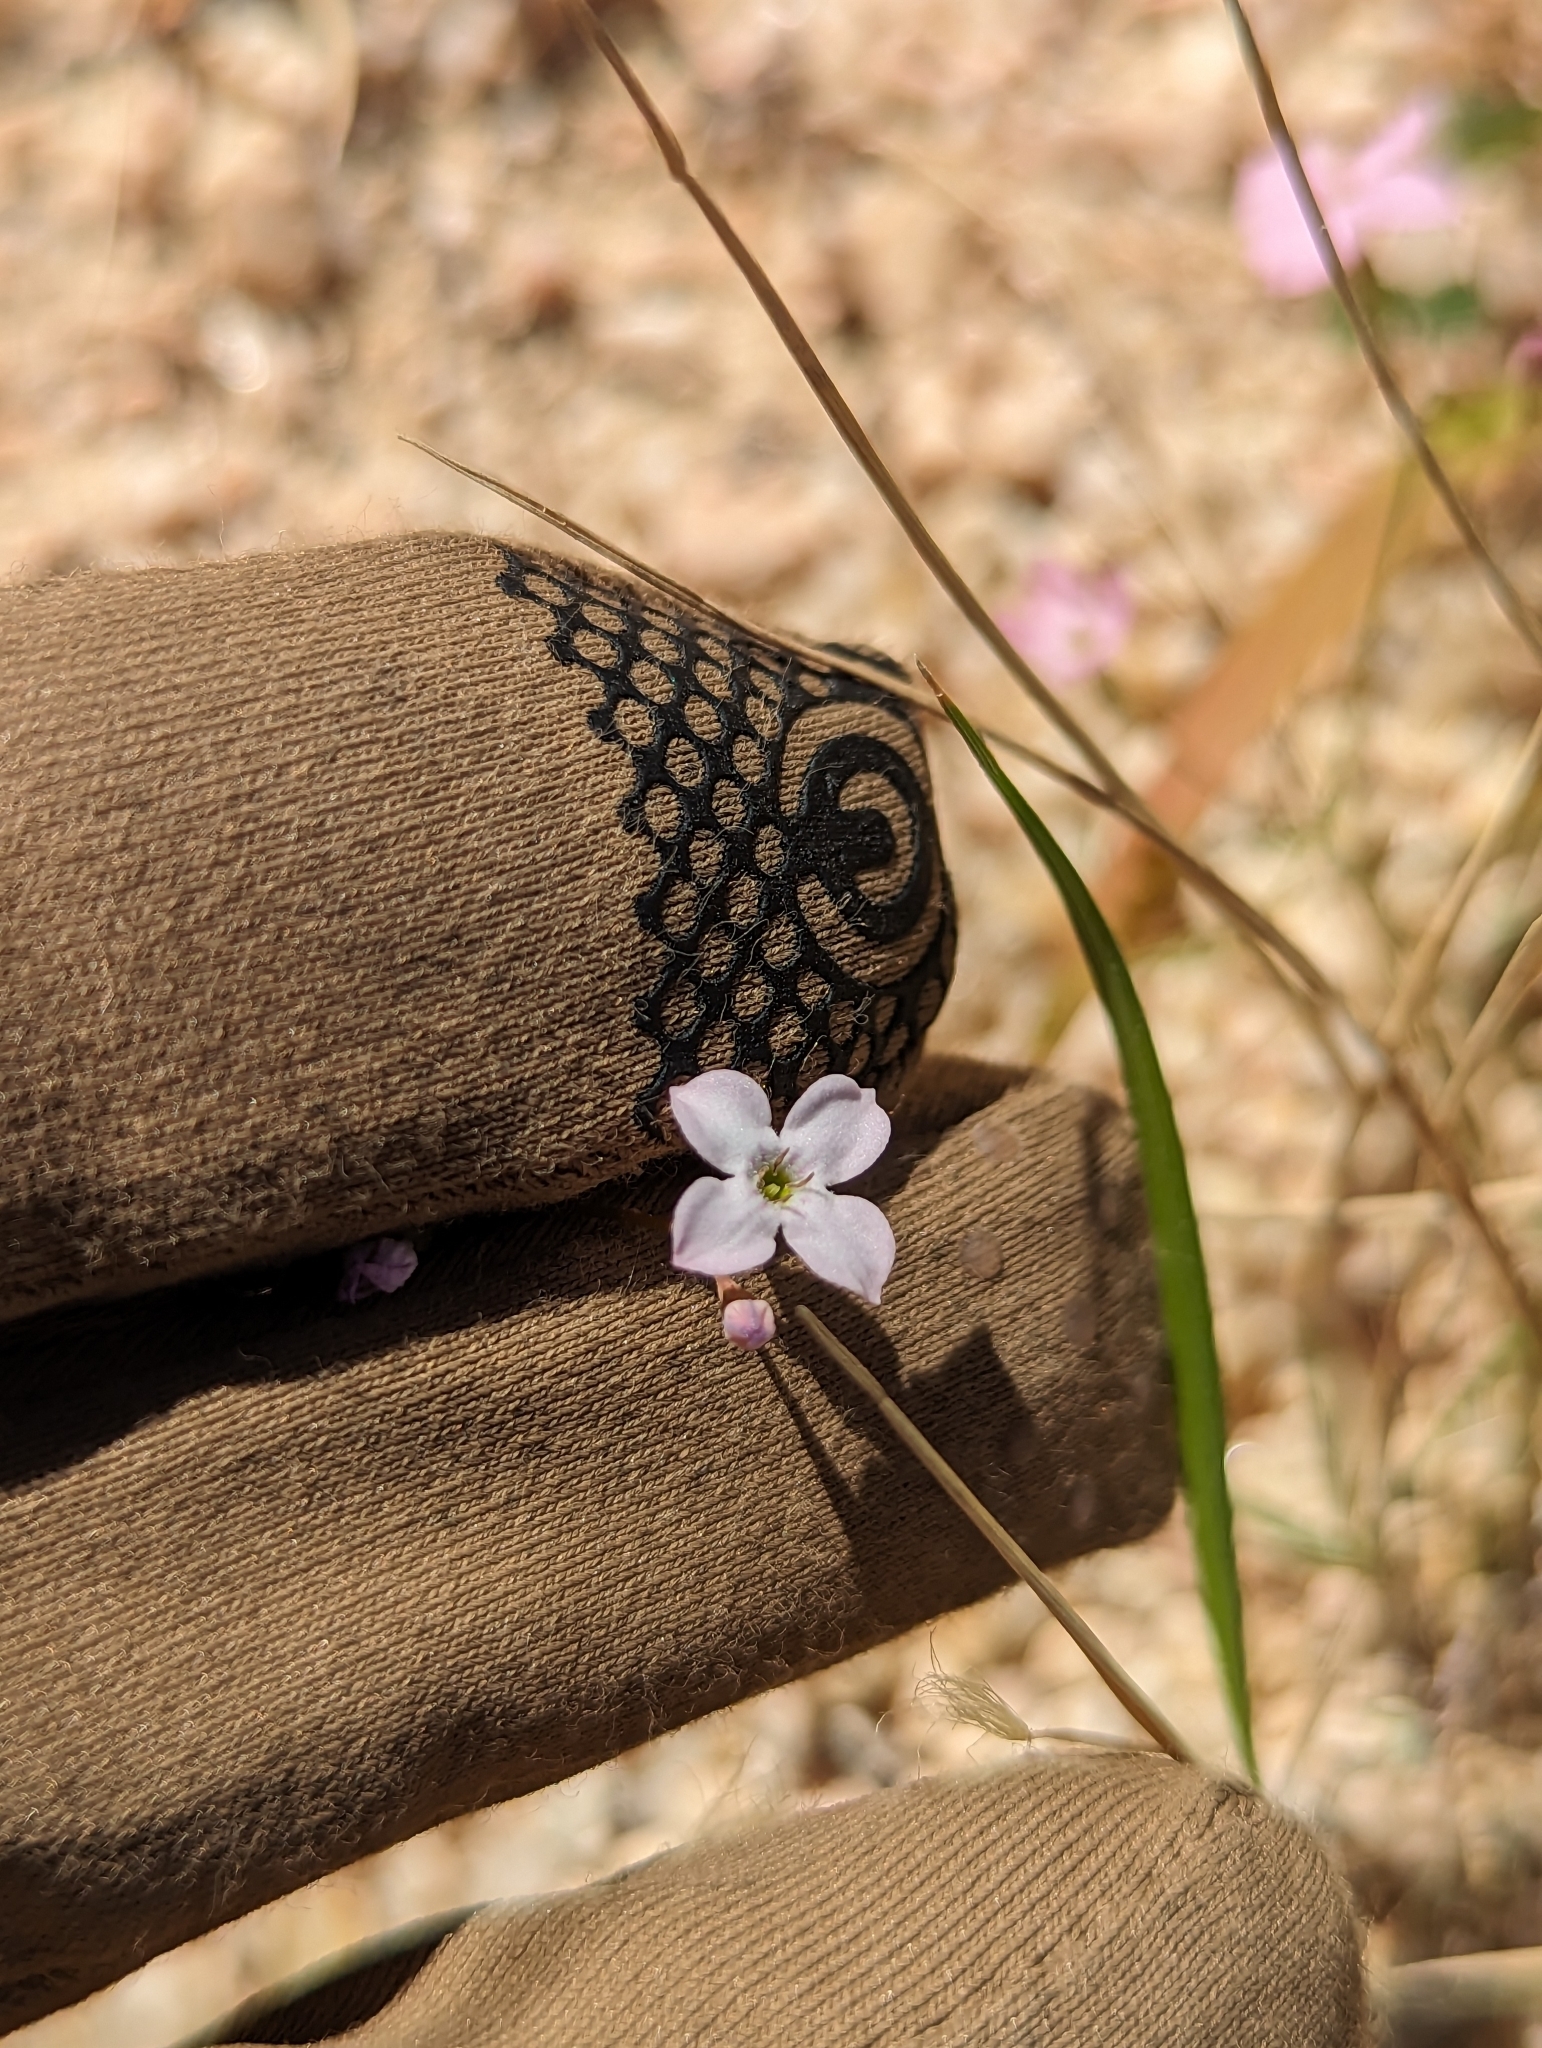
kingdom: Plantae
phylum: Tracheophyta
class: Magnoliopsida
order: Gentianales
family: Rubiaceae
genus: Stenotis
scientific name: Stenotis asperuloides
